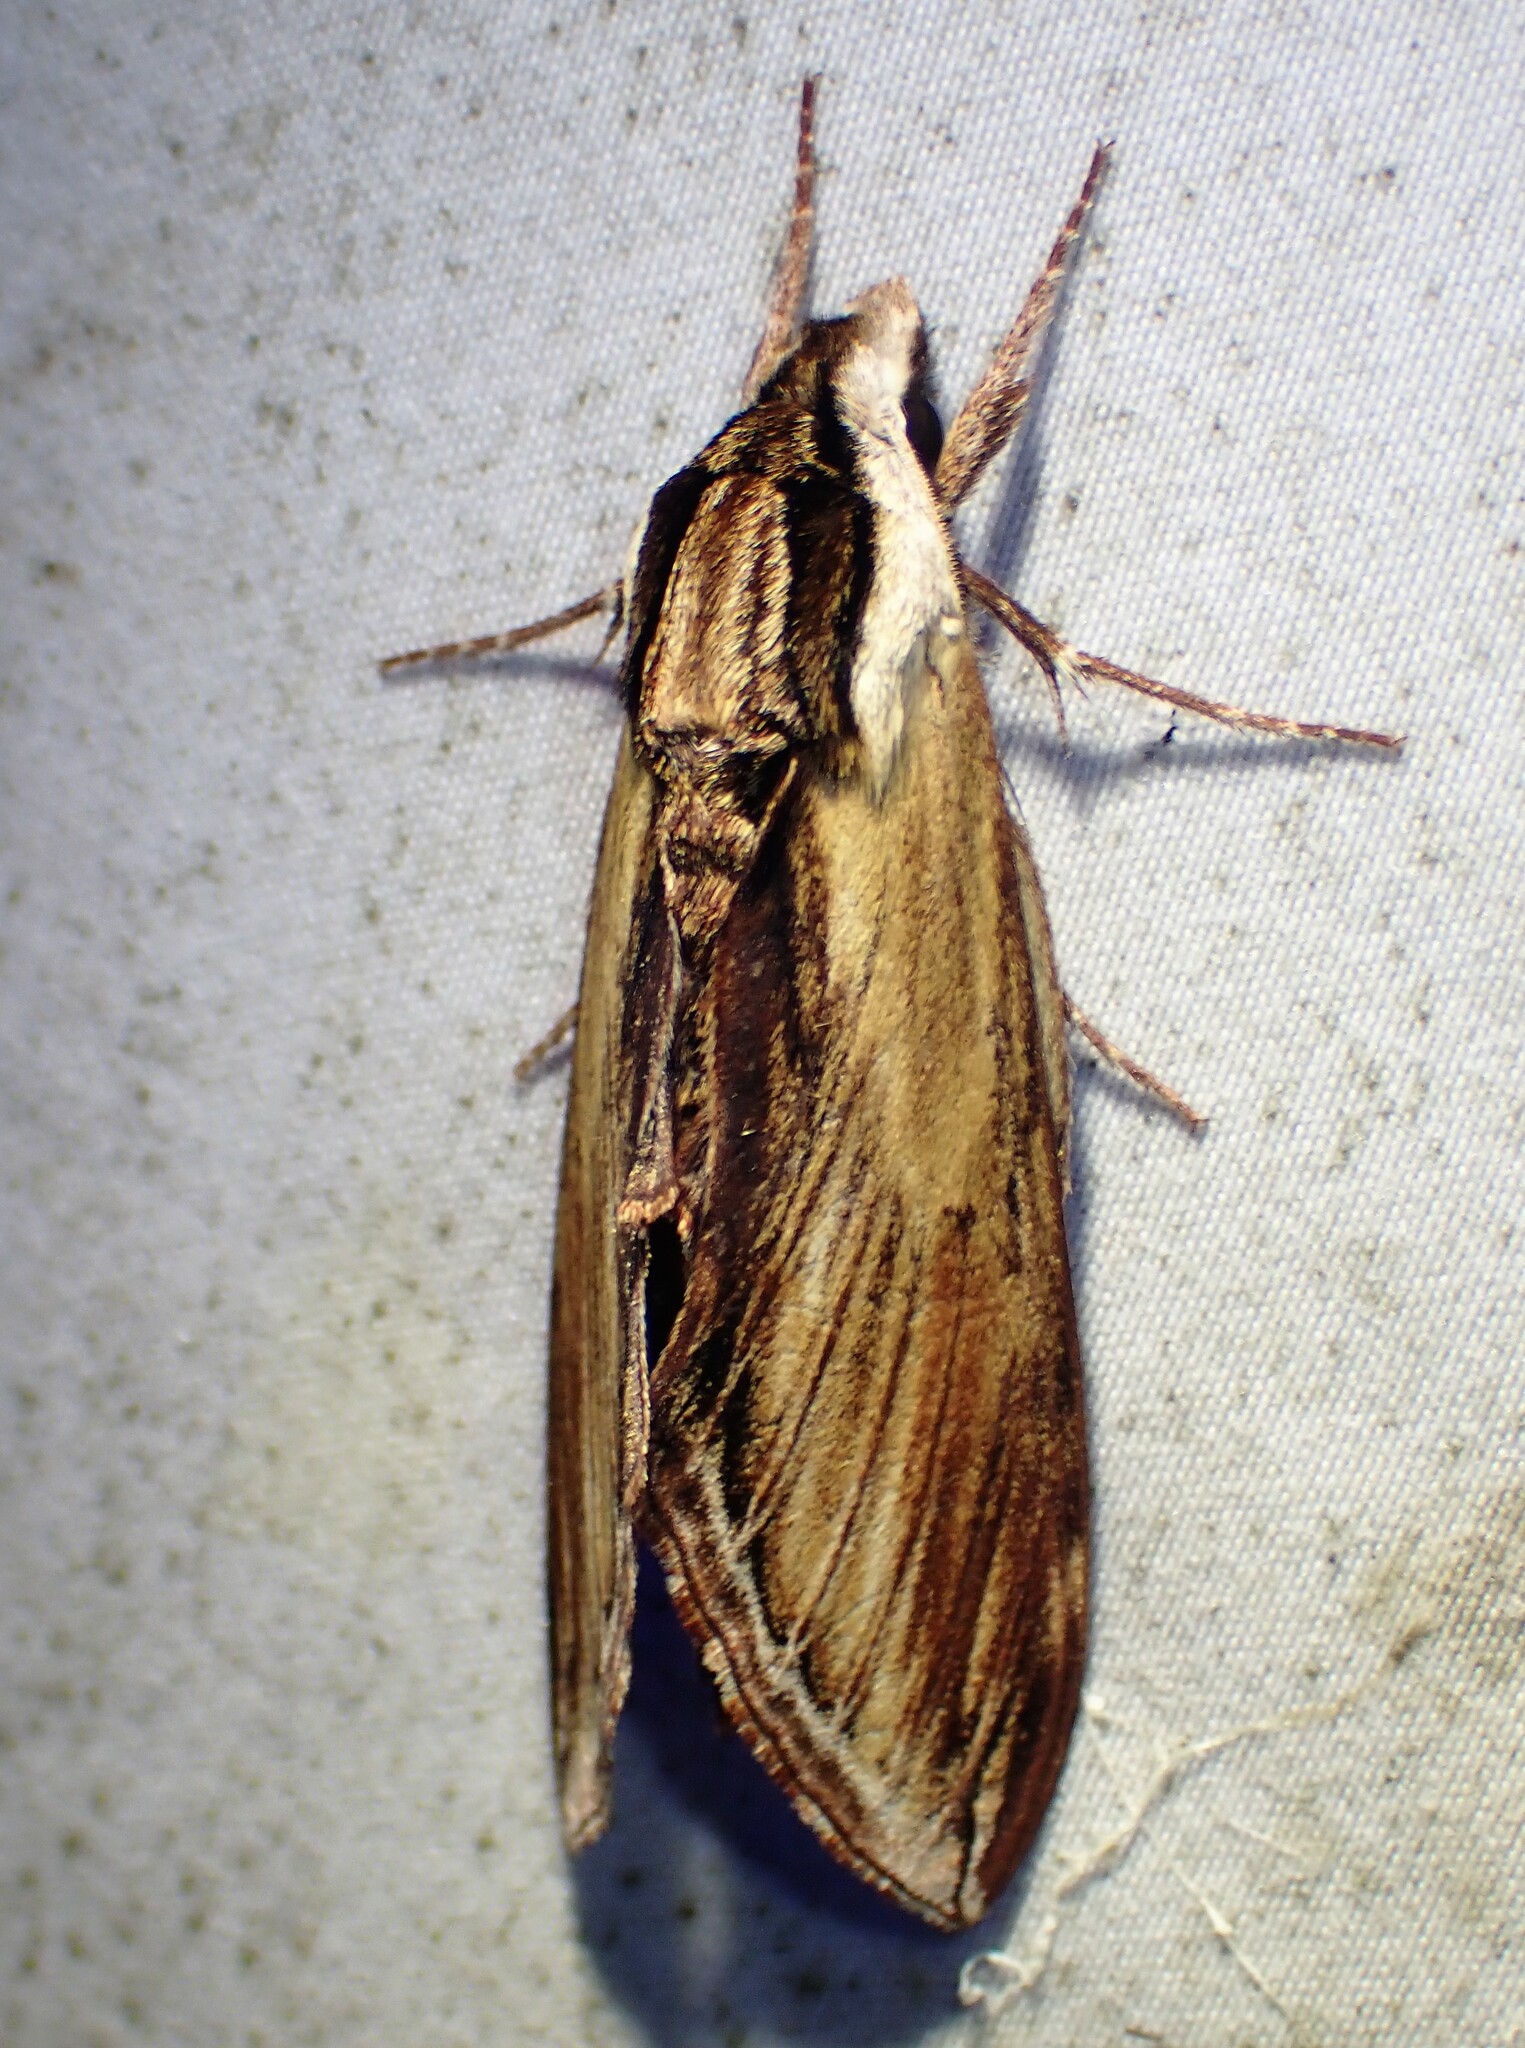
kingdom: Animalia
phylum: Arthropoda
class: Insecta
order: Lepidoptera
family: Sphingidae
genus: Sphinx
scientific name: Sphinx kalmiae
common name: Laurel sphinx
